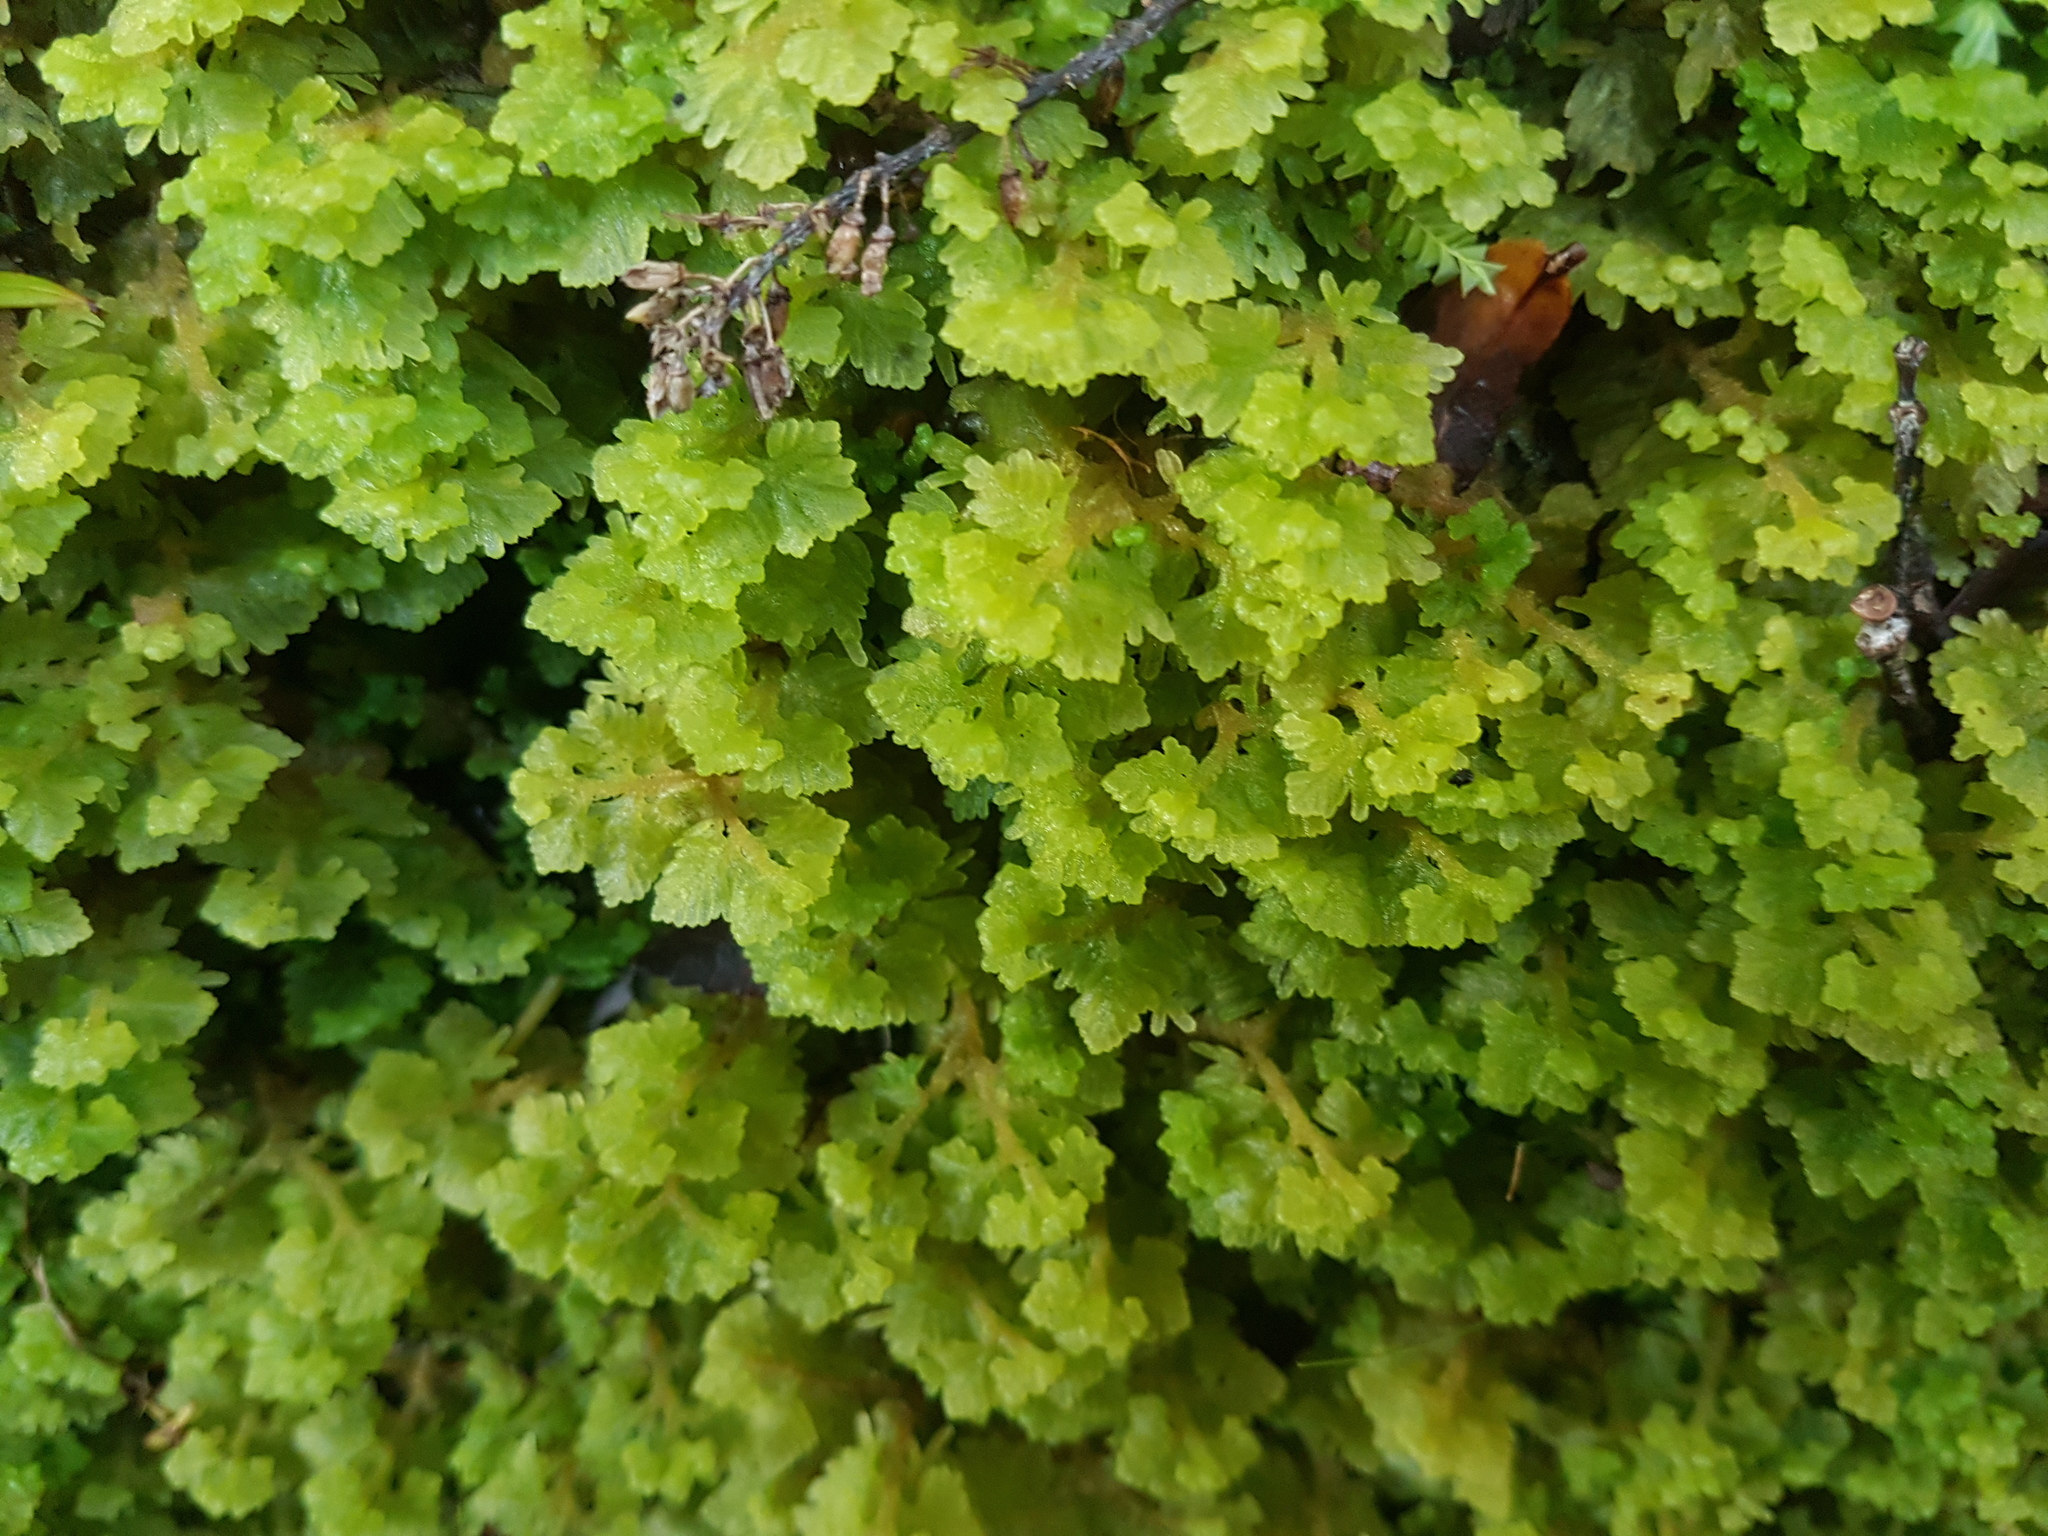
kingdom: Plantae
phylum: Marchantiophyta
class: Jungermanniopsida
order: Jungermanniales
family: Trichocoleaceae
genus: Trichocolea
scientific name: Trichocolea mollissima
